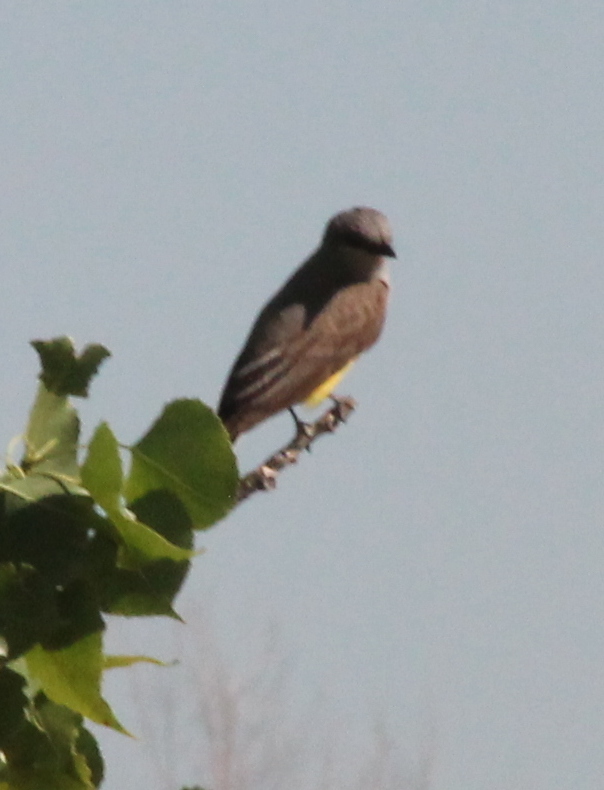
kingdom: Animalia
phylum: Chordata
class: Aves
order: Passeriformes
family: Tyrannidae
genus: Tyrannus
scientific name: Tyrannus verticalis
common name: Western kingbird
